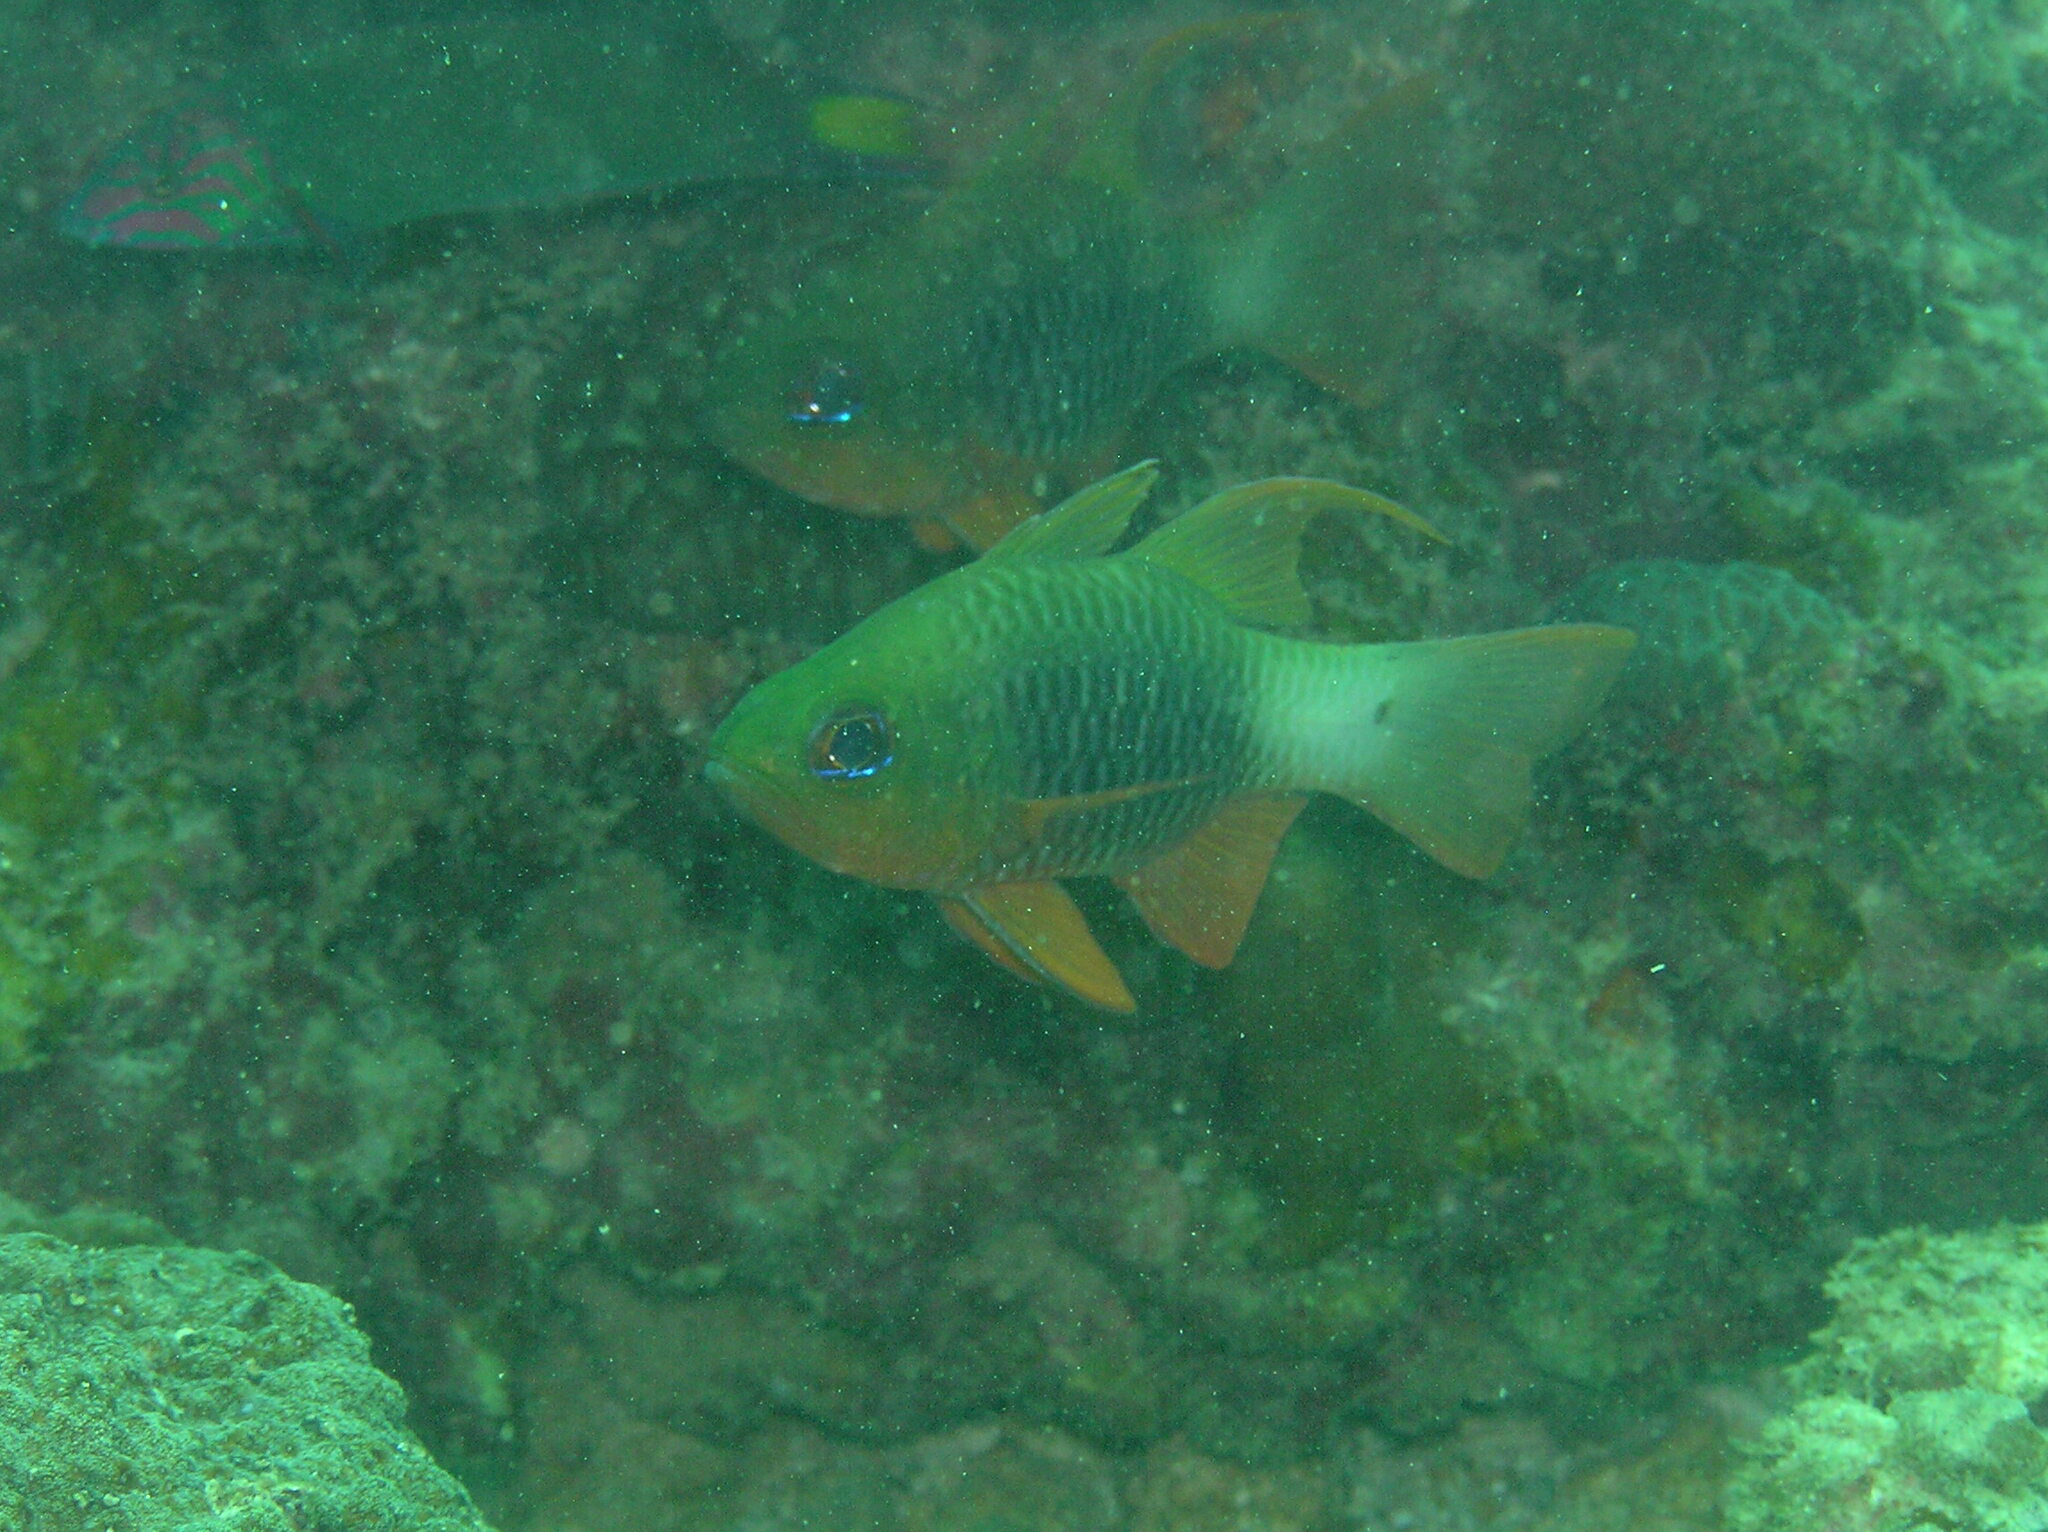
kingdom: Animalia
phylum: Chordata
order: Perciformes
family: Apogonidae
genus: Ostorhinchus
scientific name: Ostorhinchus griffini
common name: Cardinalfish
